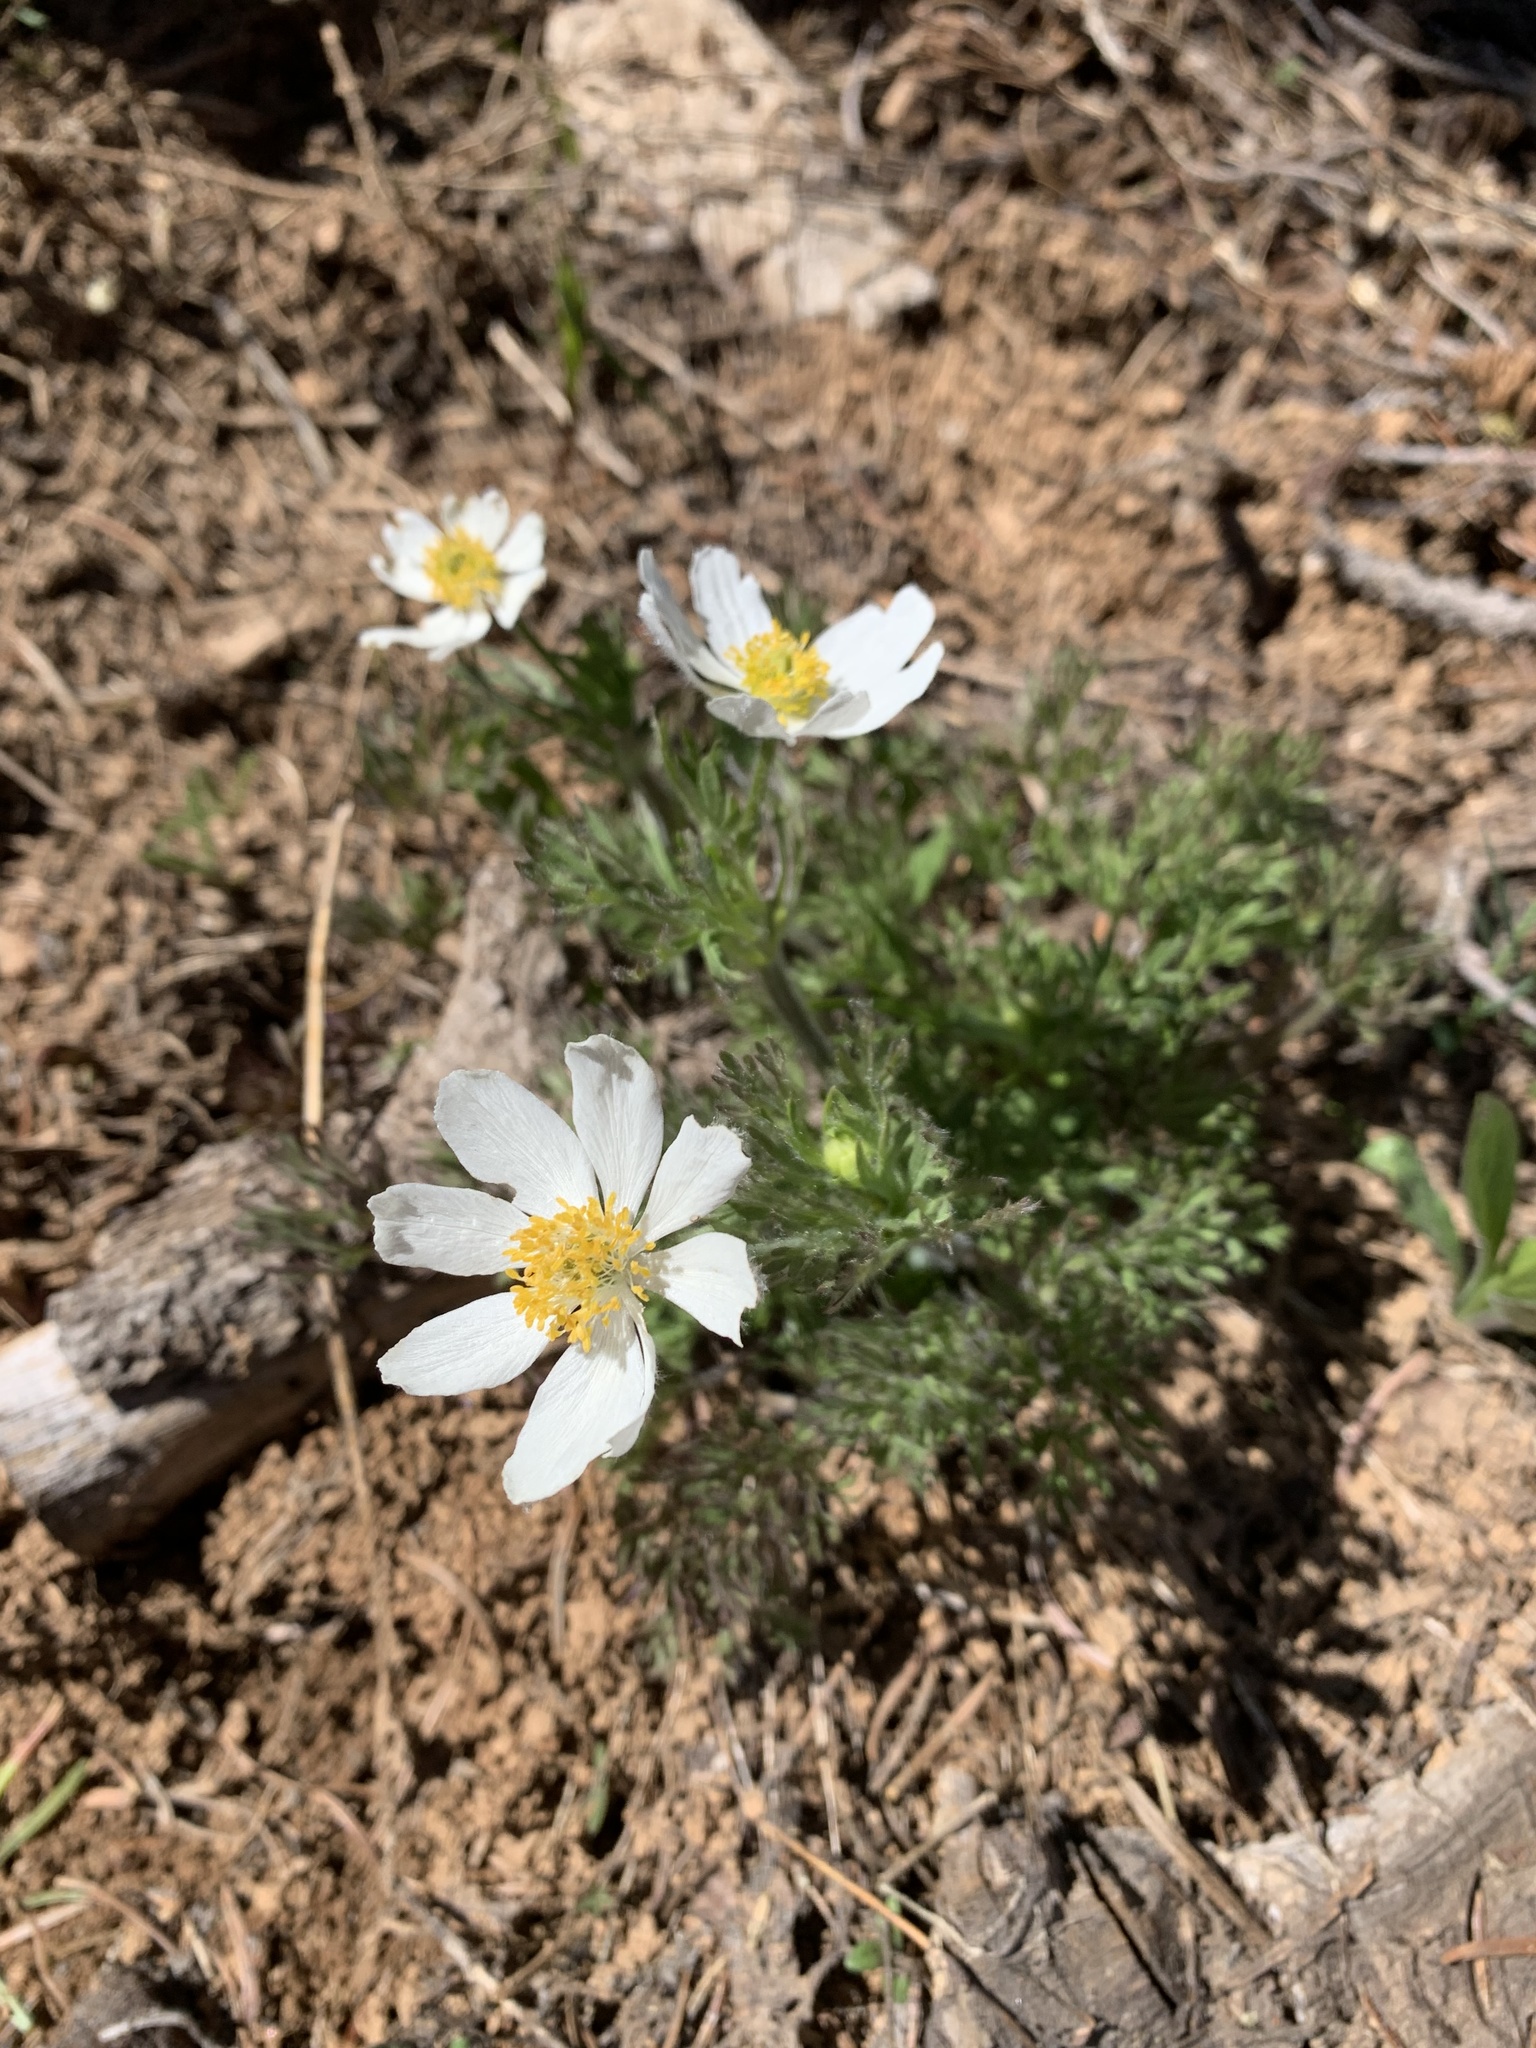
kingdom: Plantae
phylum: Tracheophyta
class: Magnoliopsida
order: Ranunculales
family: Ranunculaceae
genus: Anemone
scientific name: Anemone drummondii
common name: Drummond's anemone
